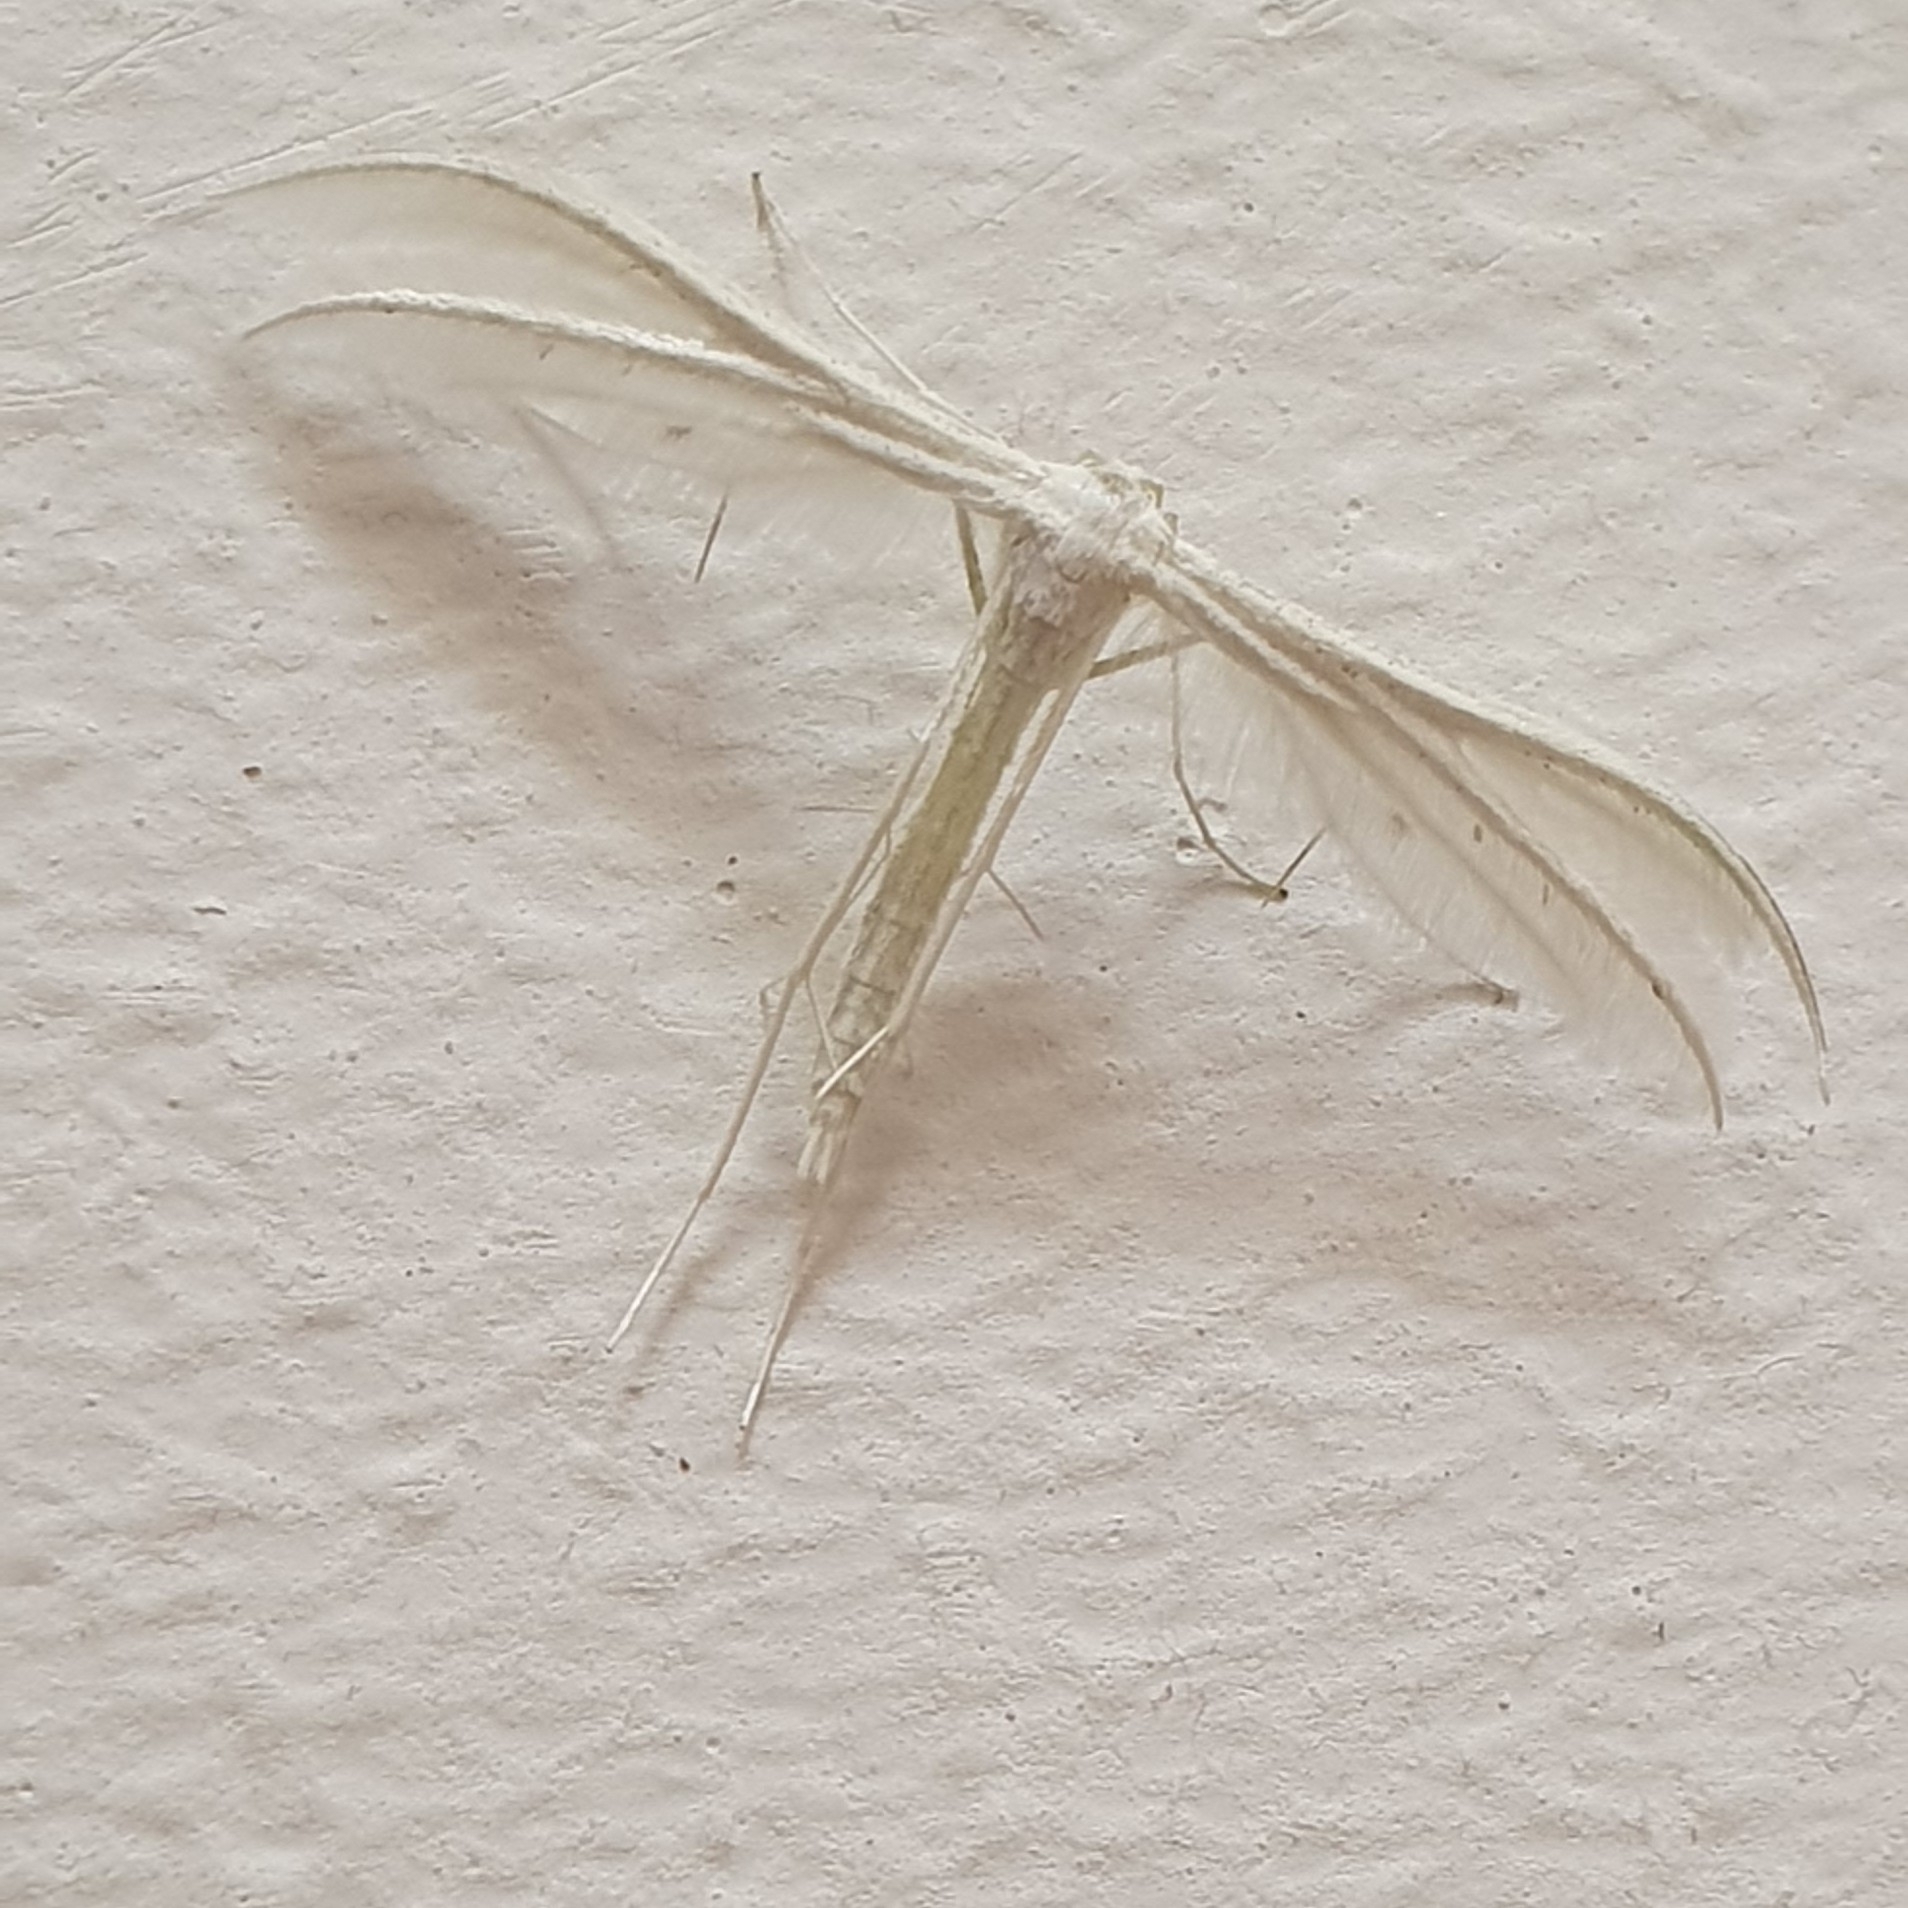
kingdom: Animalia
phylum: Arthropoda
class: Insecta
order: Lepidoptera
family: Pterophoridae
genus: Pterophorus
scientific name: Pterophorus pentadactyla
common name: White plume moth
